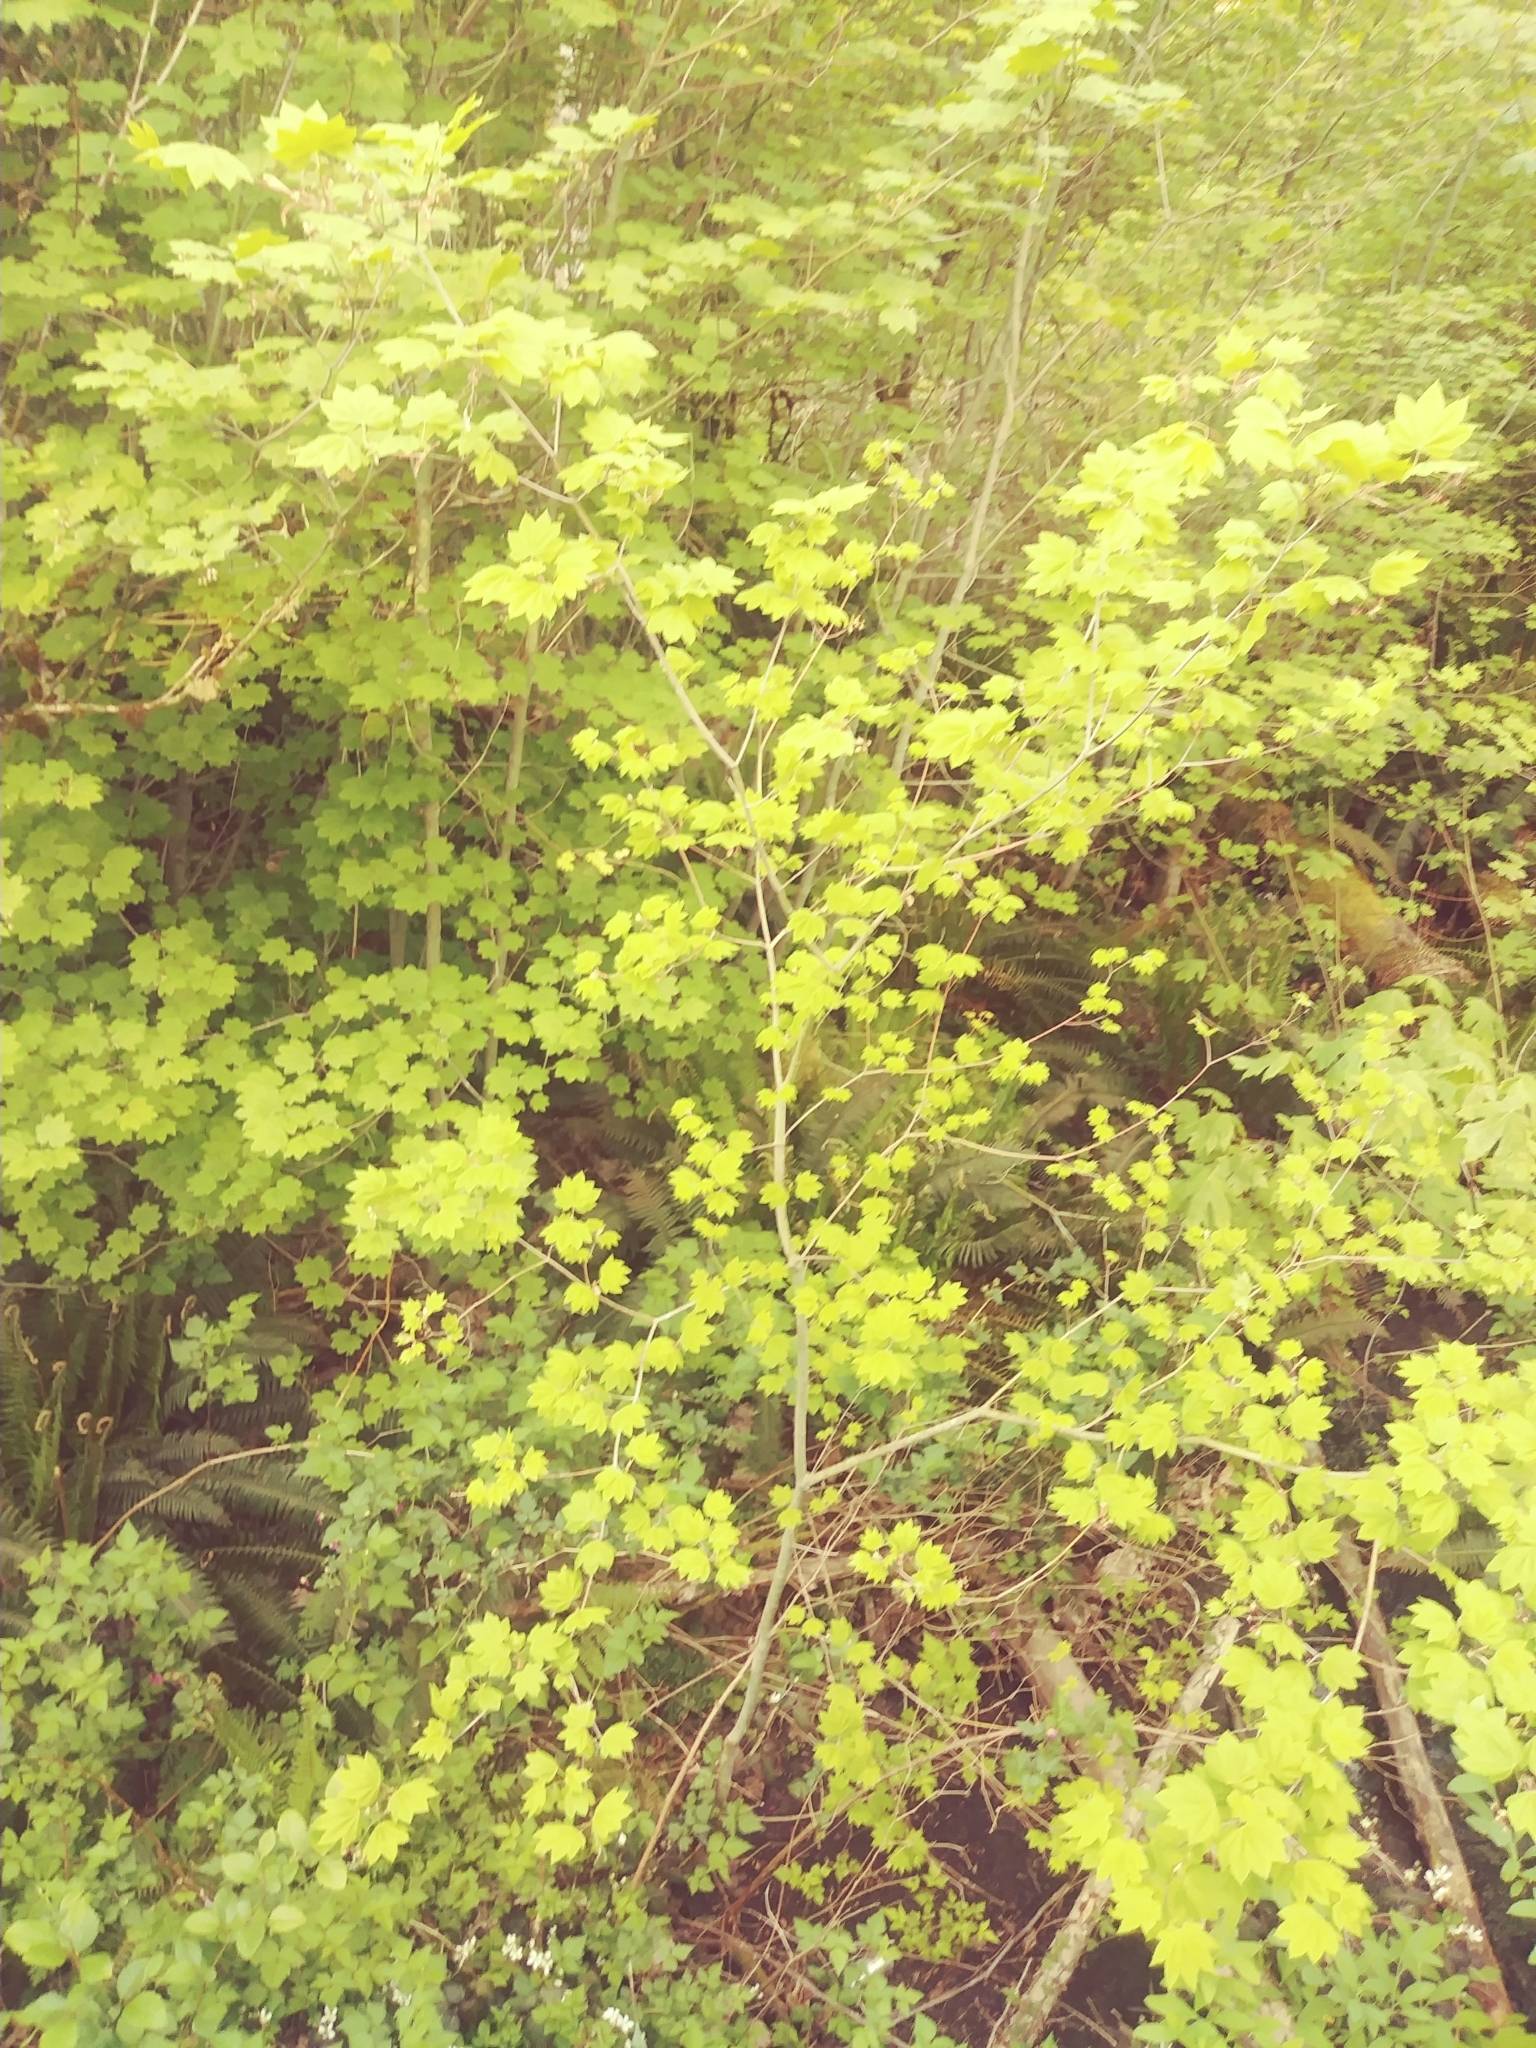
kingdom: Plantae
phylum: Tracheophyta
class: Magnoliopsida
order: Sapindales
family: Sapindaceae
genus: Acer
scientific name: Acer circinatum
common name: Vine maple
